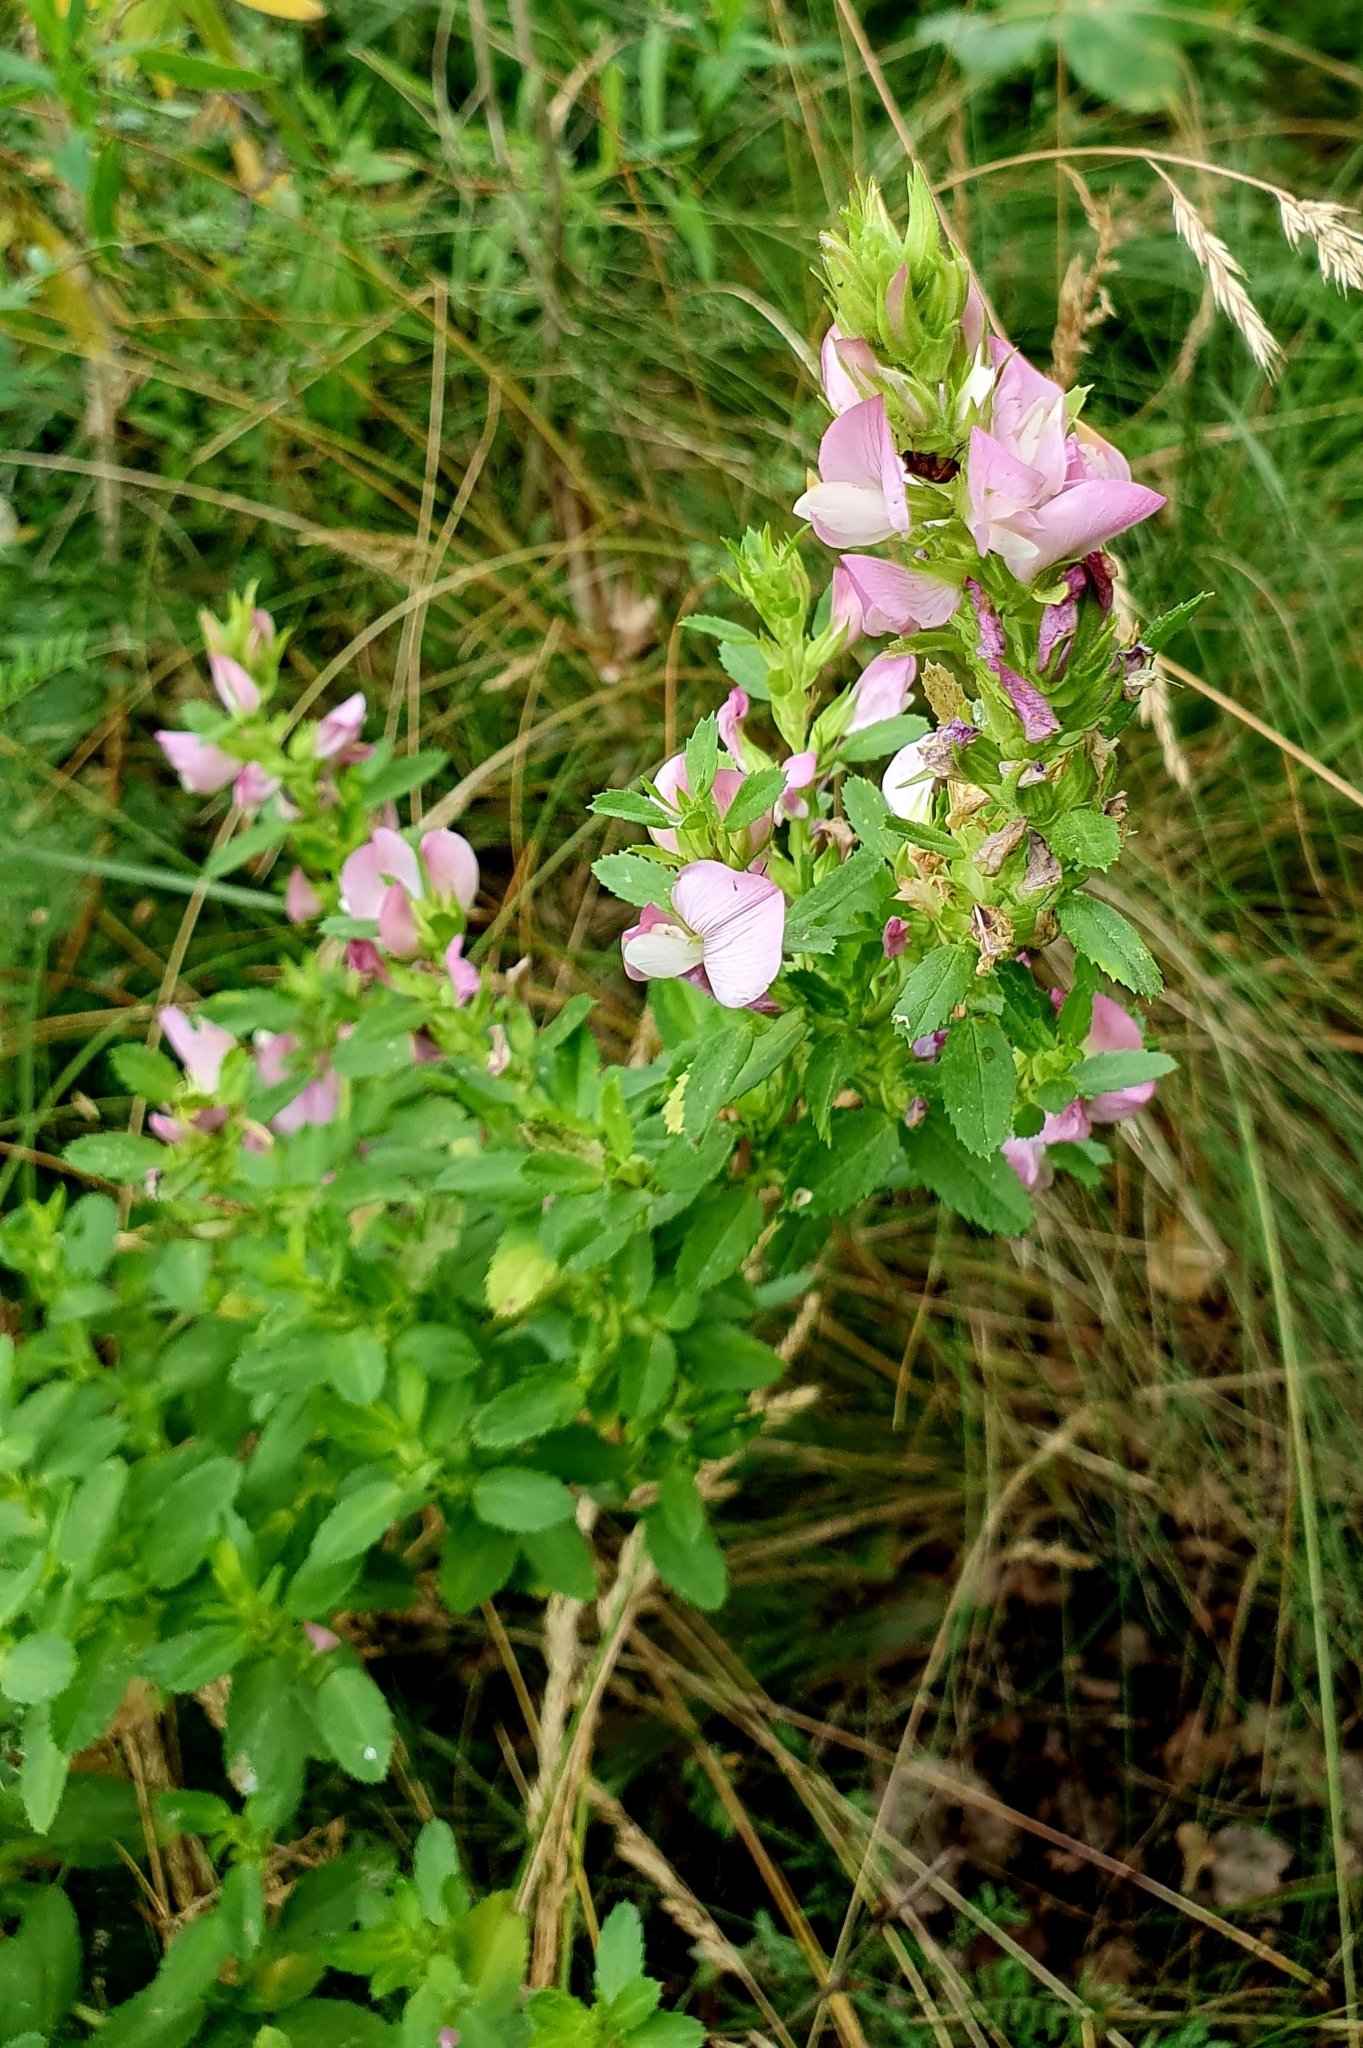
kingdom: Plantae
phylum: Tracheophyta
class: Magnoliopsida
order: Fabales
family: Fabaceae
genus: Ononis
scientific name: Ononis arvensis
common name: Field restharrow
